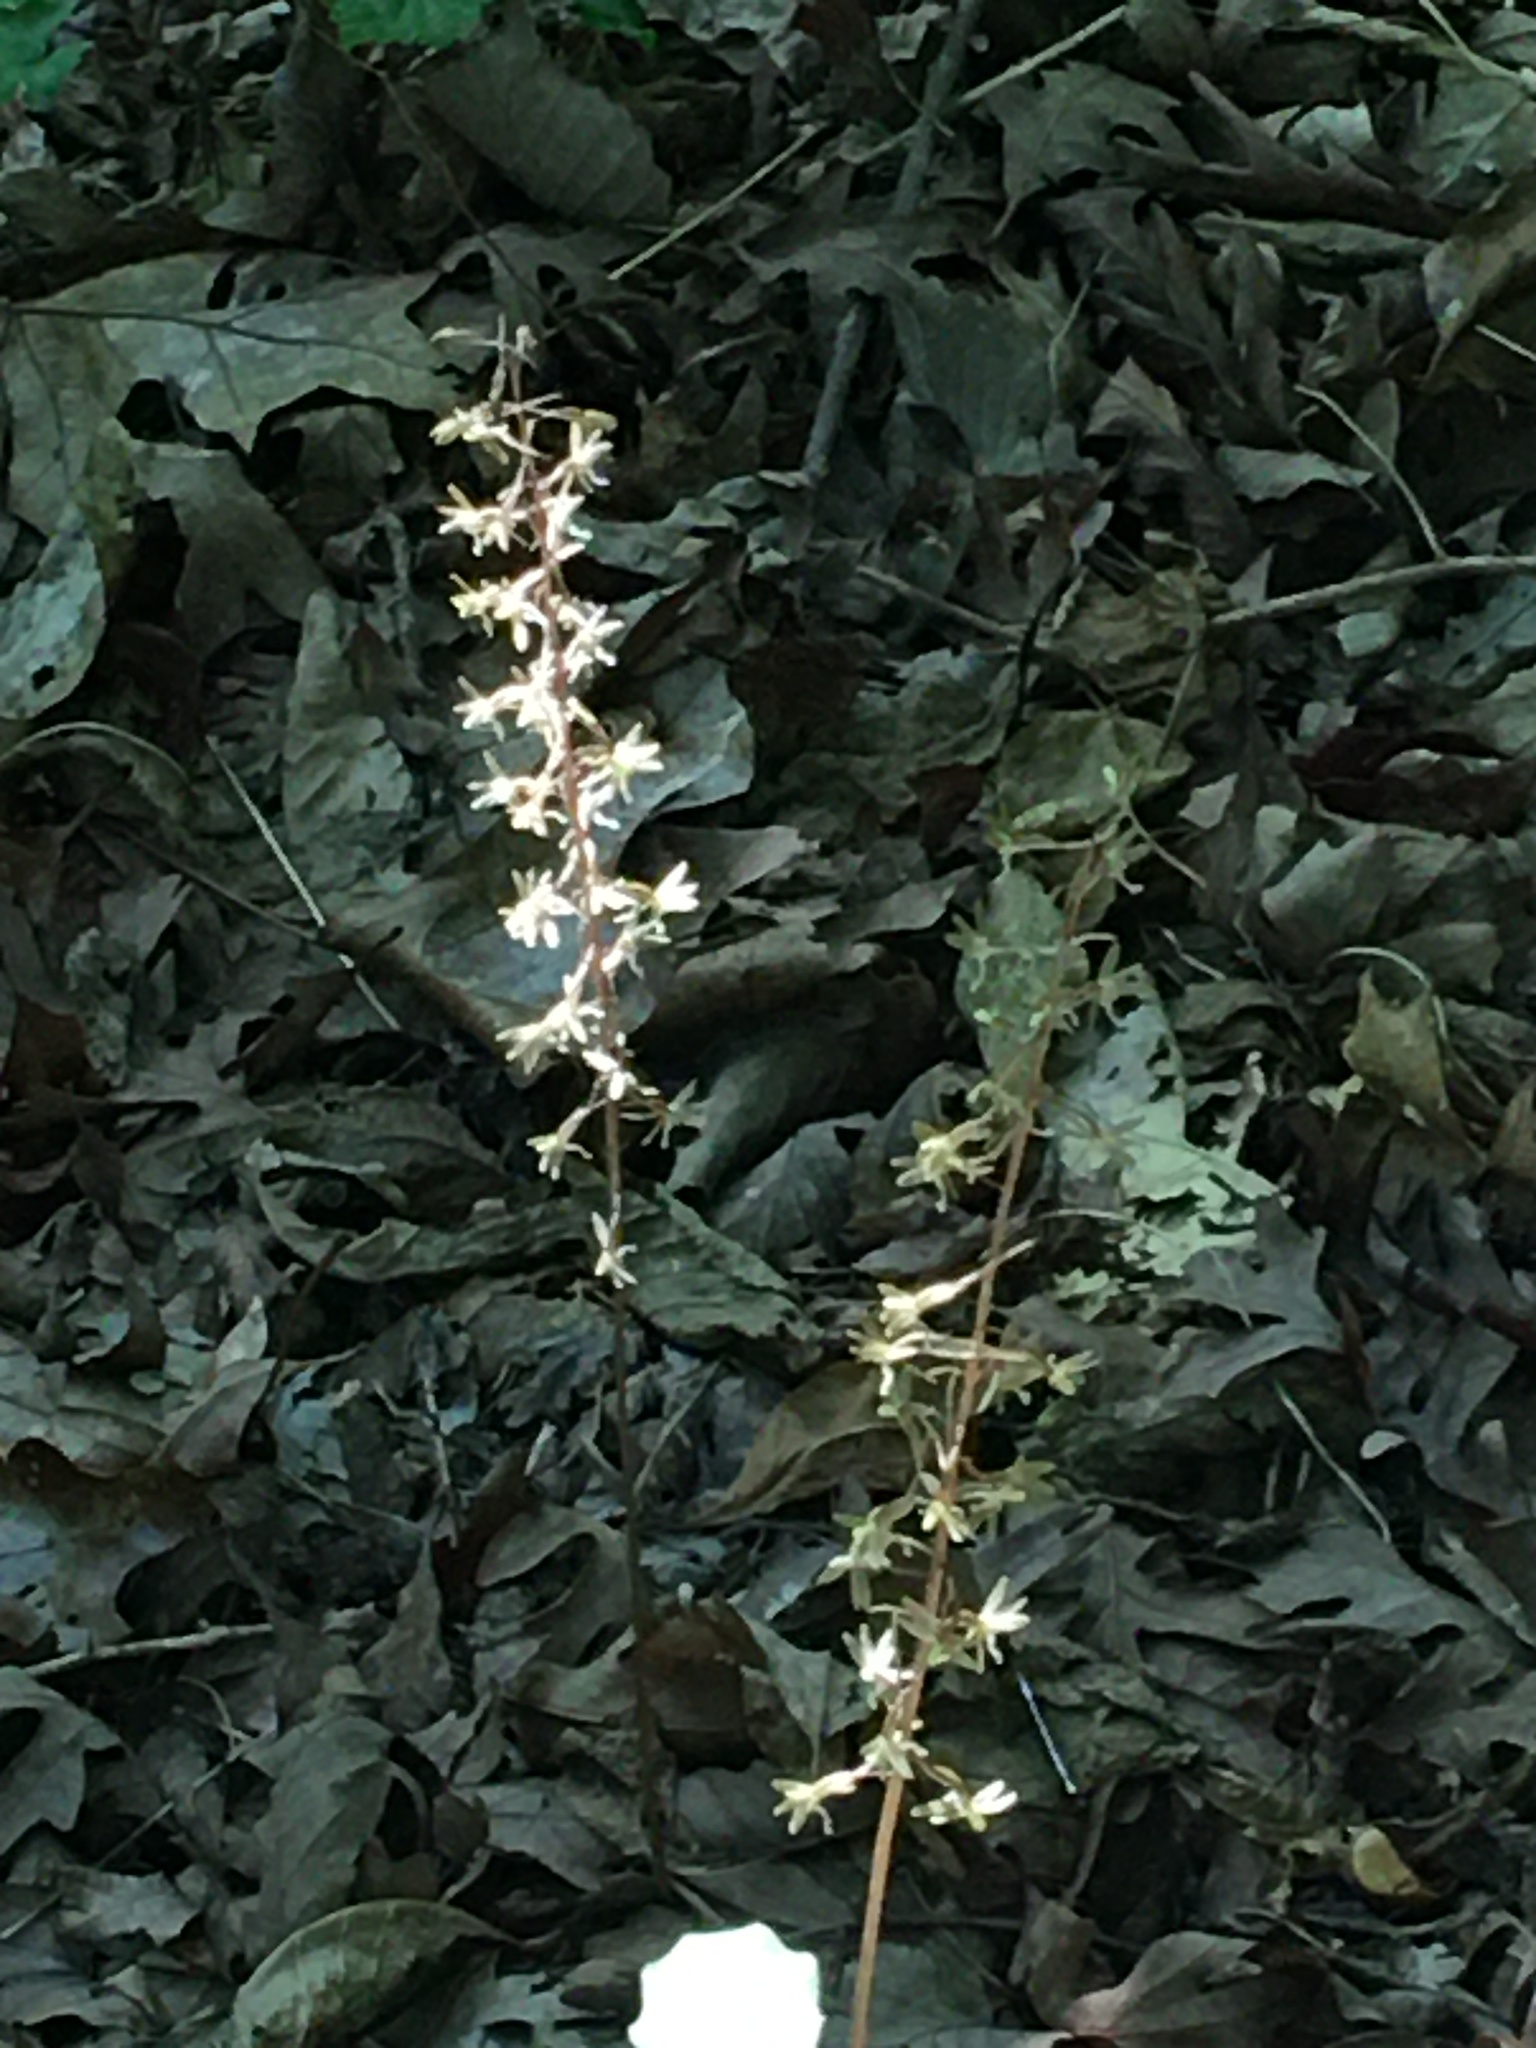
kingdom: Plantae
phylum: Tracheophyta
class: Liliopsida
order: Asparagales
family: Orchidaceae
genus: Tipularia
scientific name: Tipularia discolor
